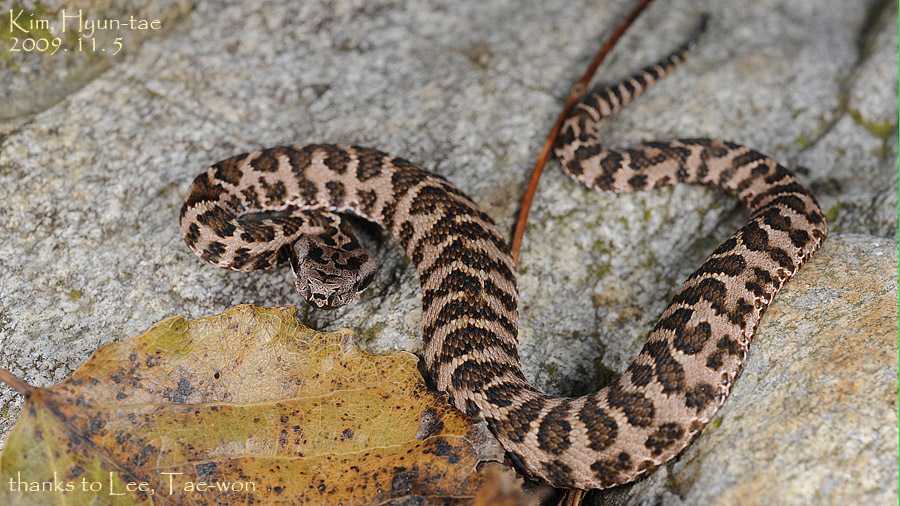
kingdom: Animalia
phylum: Chordata
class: Squamata
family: Viperidae
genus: Gloydius
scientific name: Gloydius intermedius
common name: Central asian pit viper
